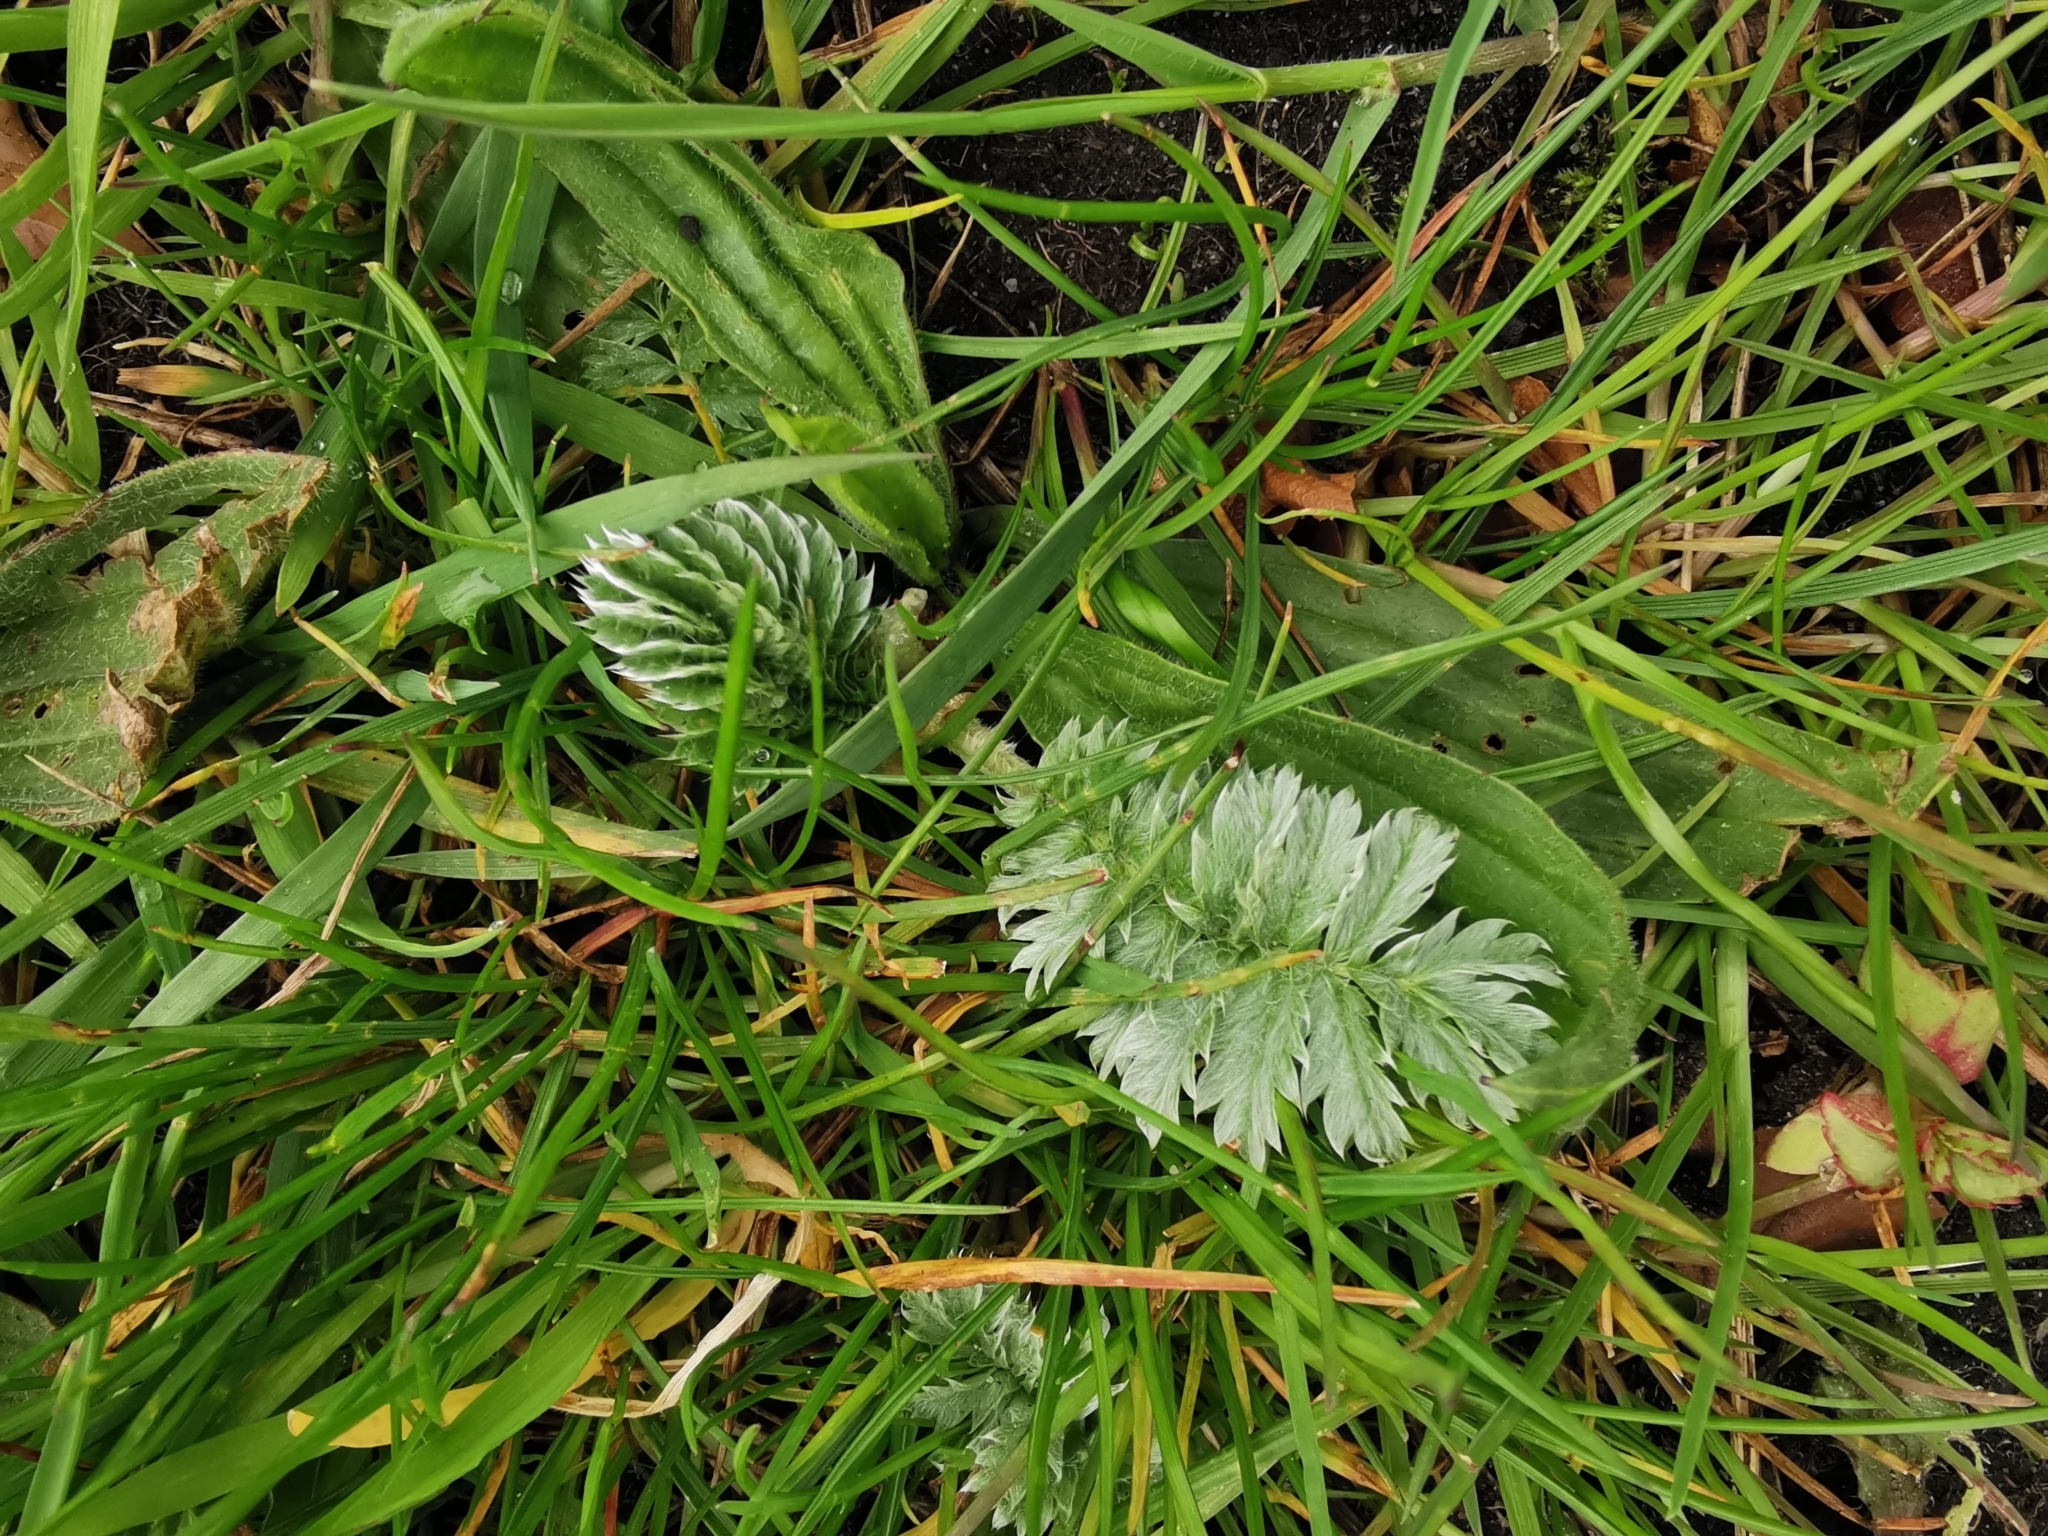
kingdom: Plantae
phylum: Tracheophyta
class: Magnoliopsida
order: Rosales
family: Rosaceae
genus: Argentina
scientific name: Argentina anserina
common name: Common silverweed
